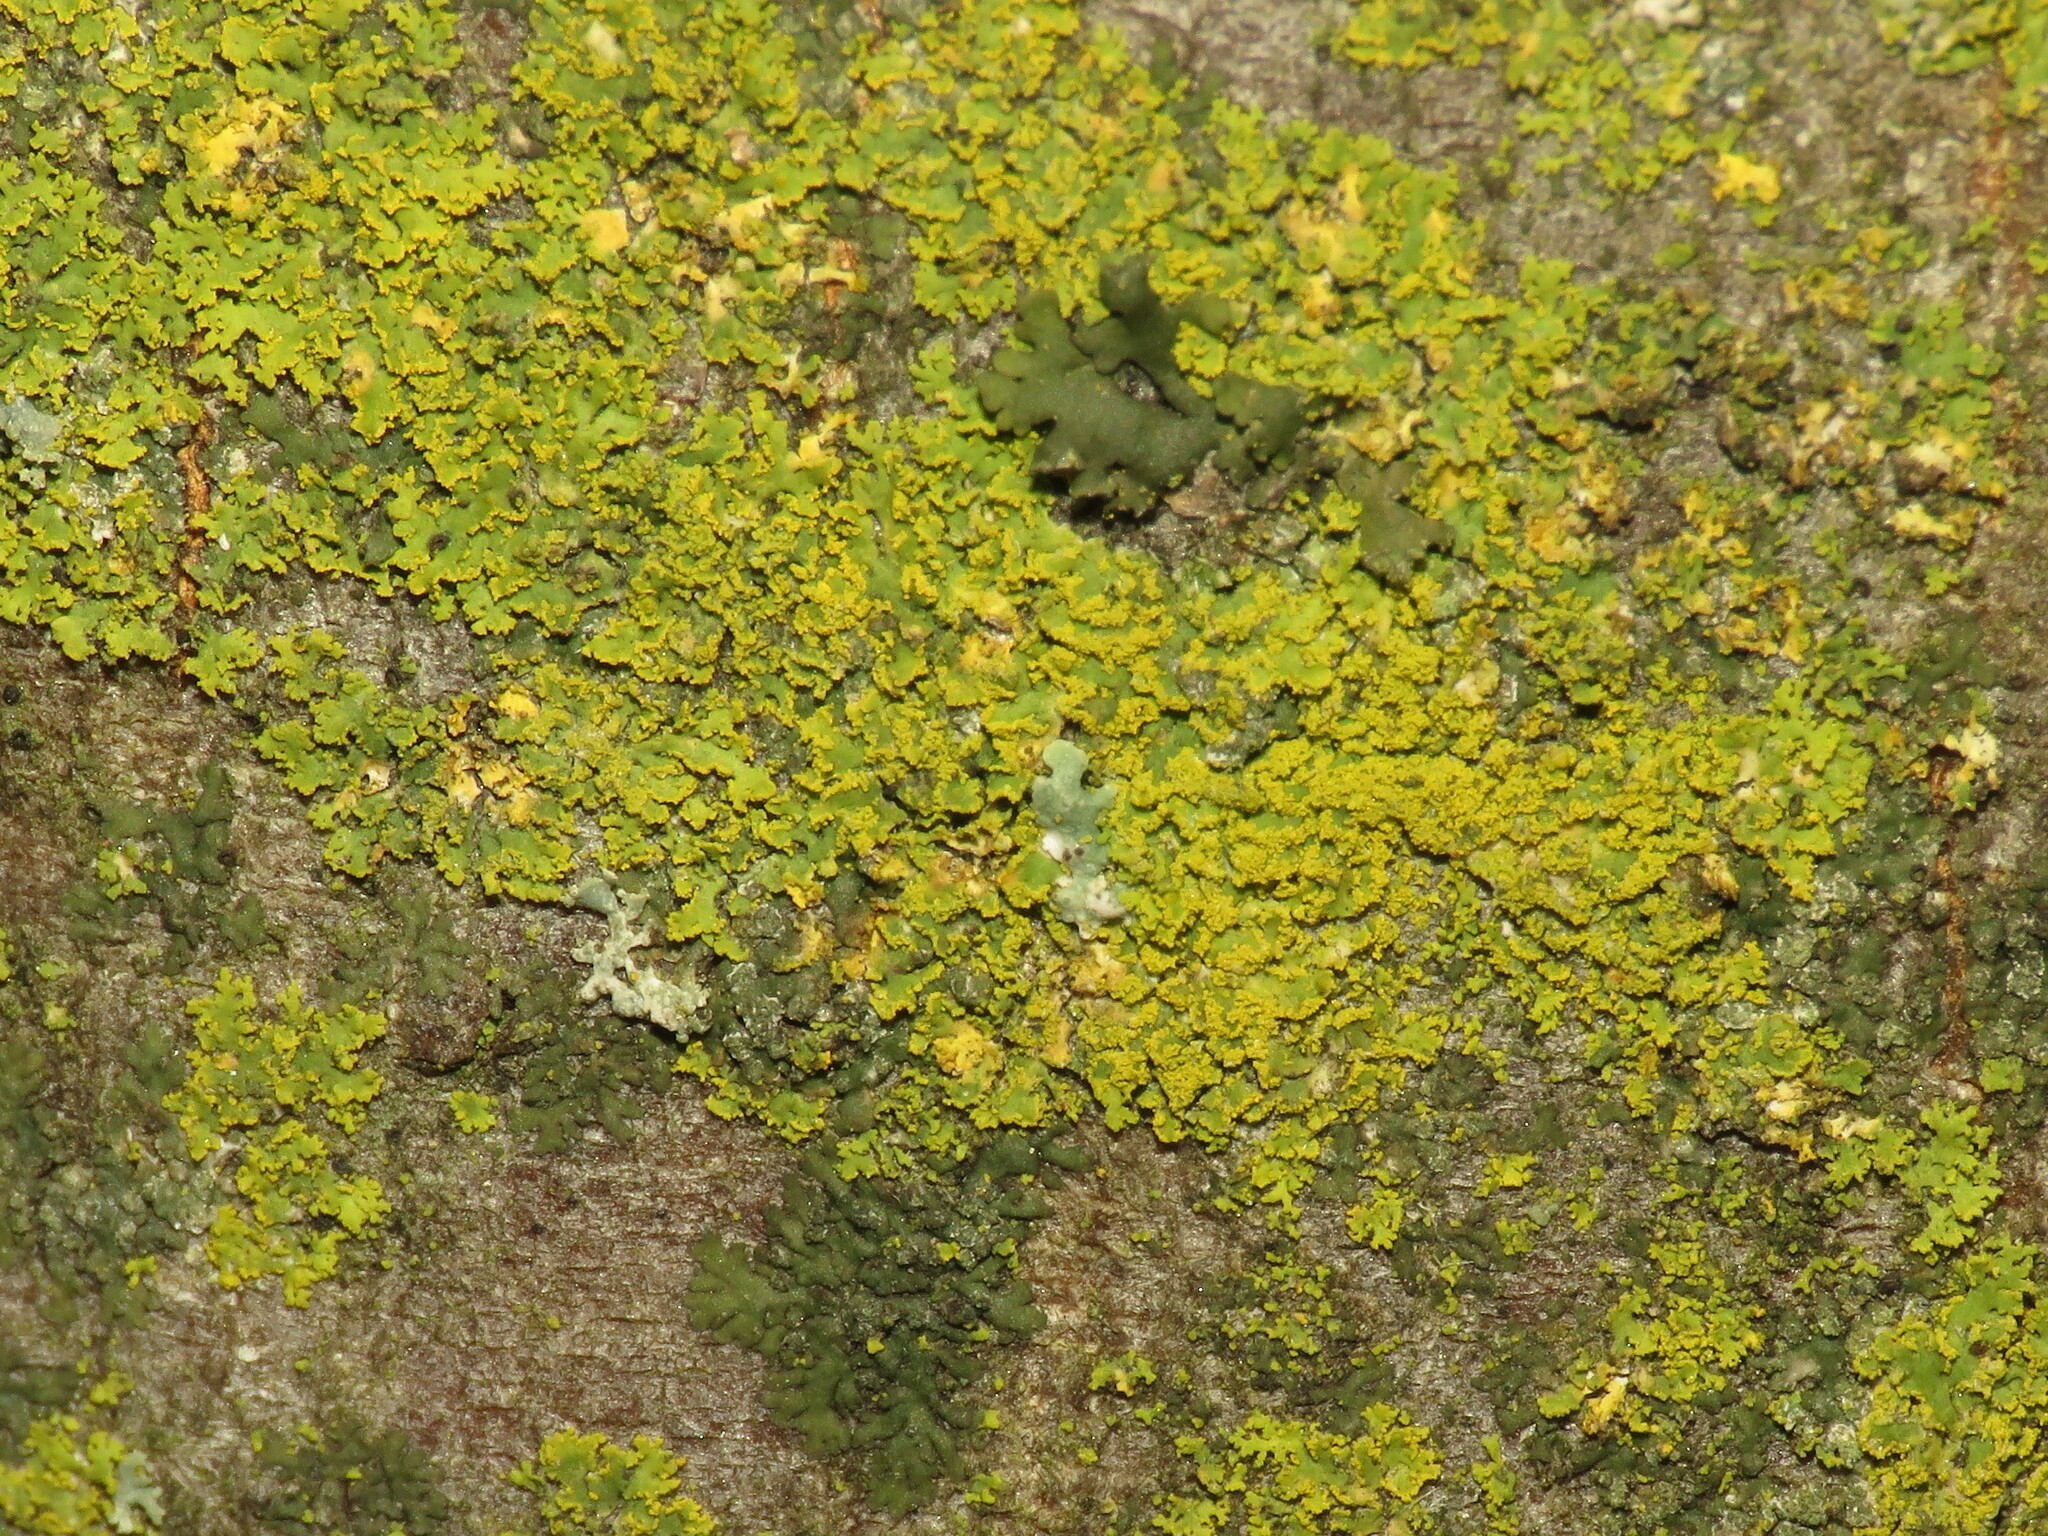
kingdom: Fungi
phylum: Ascomycota
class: Lecanoromycetes
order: Teloschistales
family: Teloschistaceae
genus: Oxneria
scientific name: Oxneria fallax
